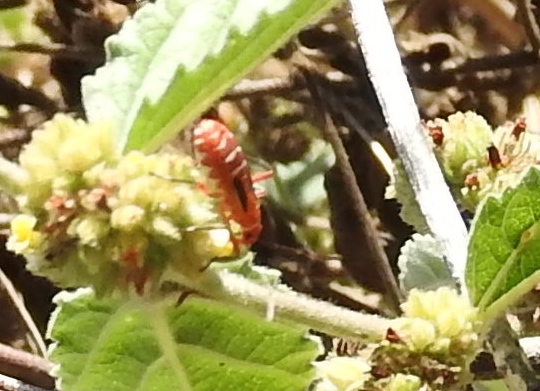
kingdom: Animalia
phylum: Arthropoda
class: Insecta
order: Hemiptera
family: Pyrrhocoridae
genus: Dysdercus
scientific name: Dysdercus
